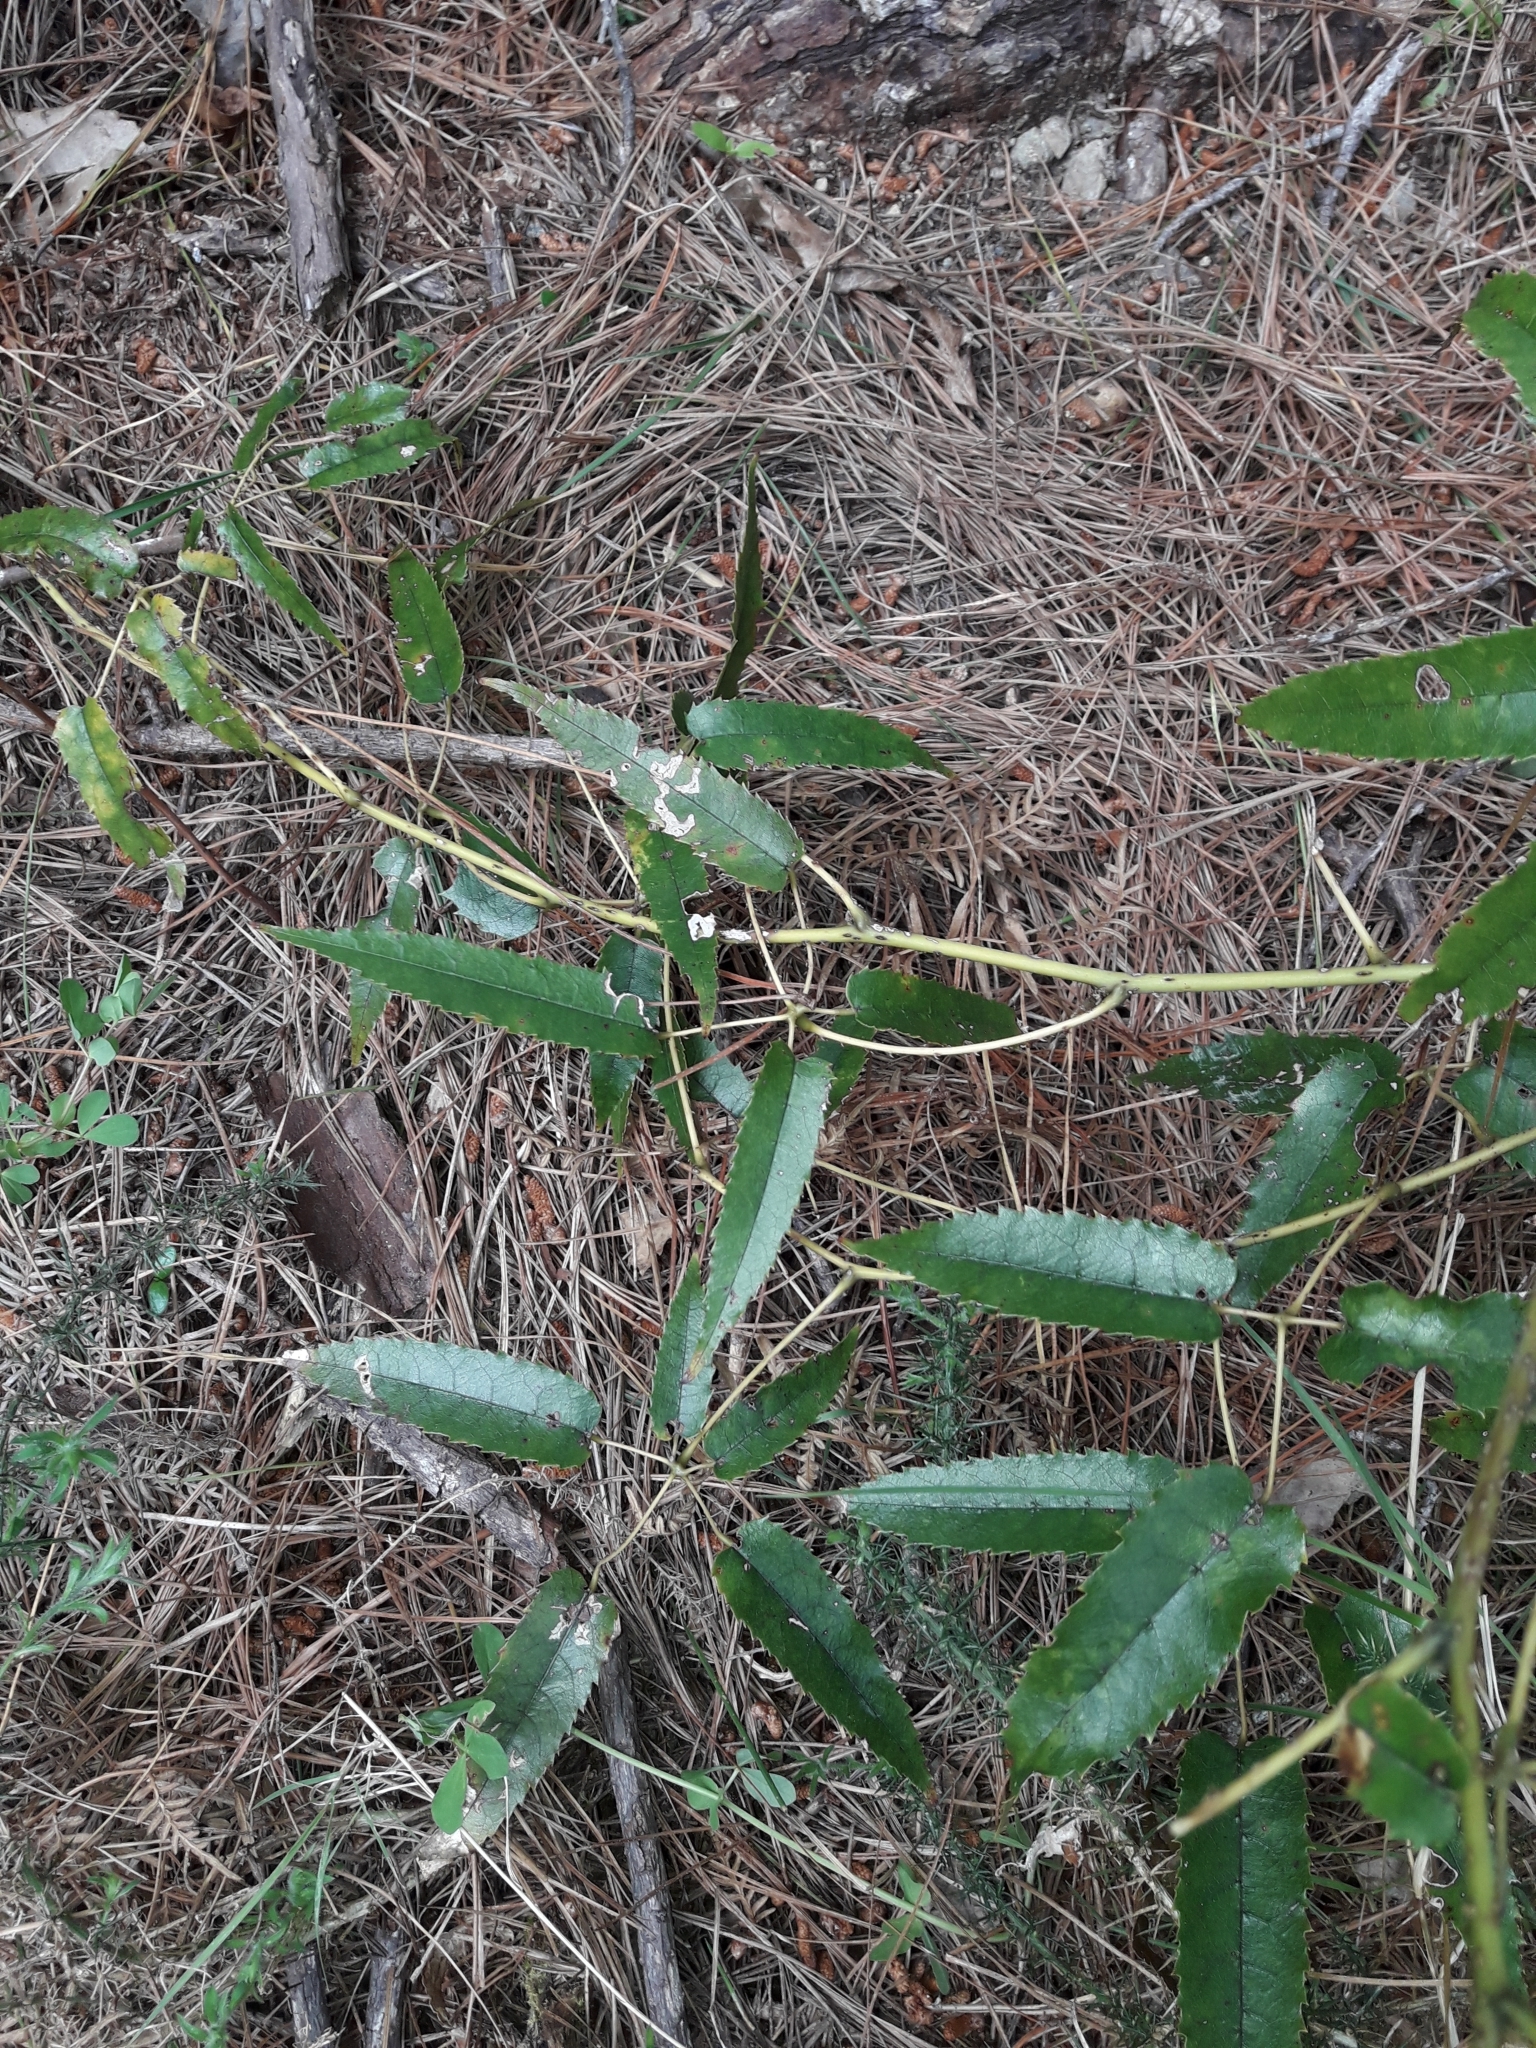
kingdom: Plantae
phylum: Tracheophyta
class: Magnoliopsida
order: Rosales
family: Rosaceae
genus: Rubus
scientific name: Rubus cissoides
